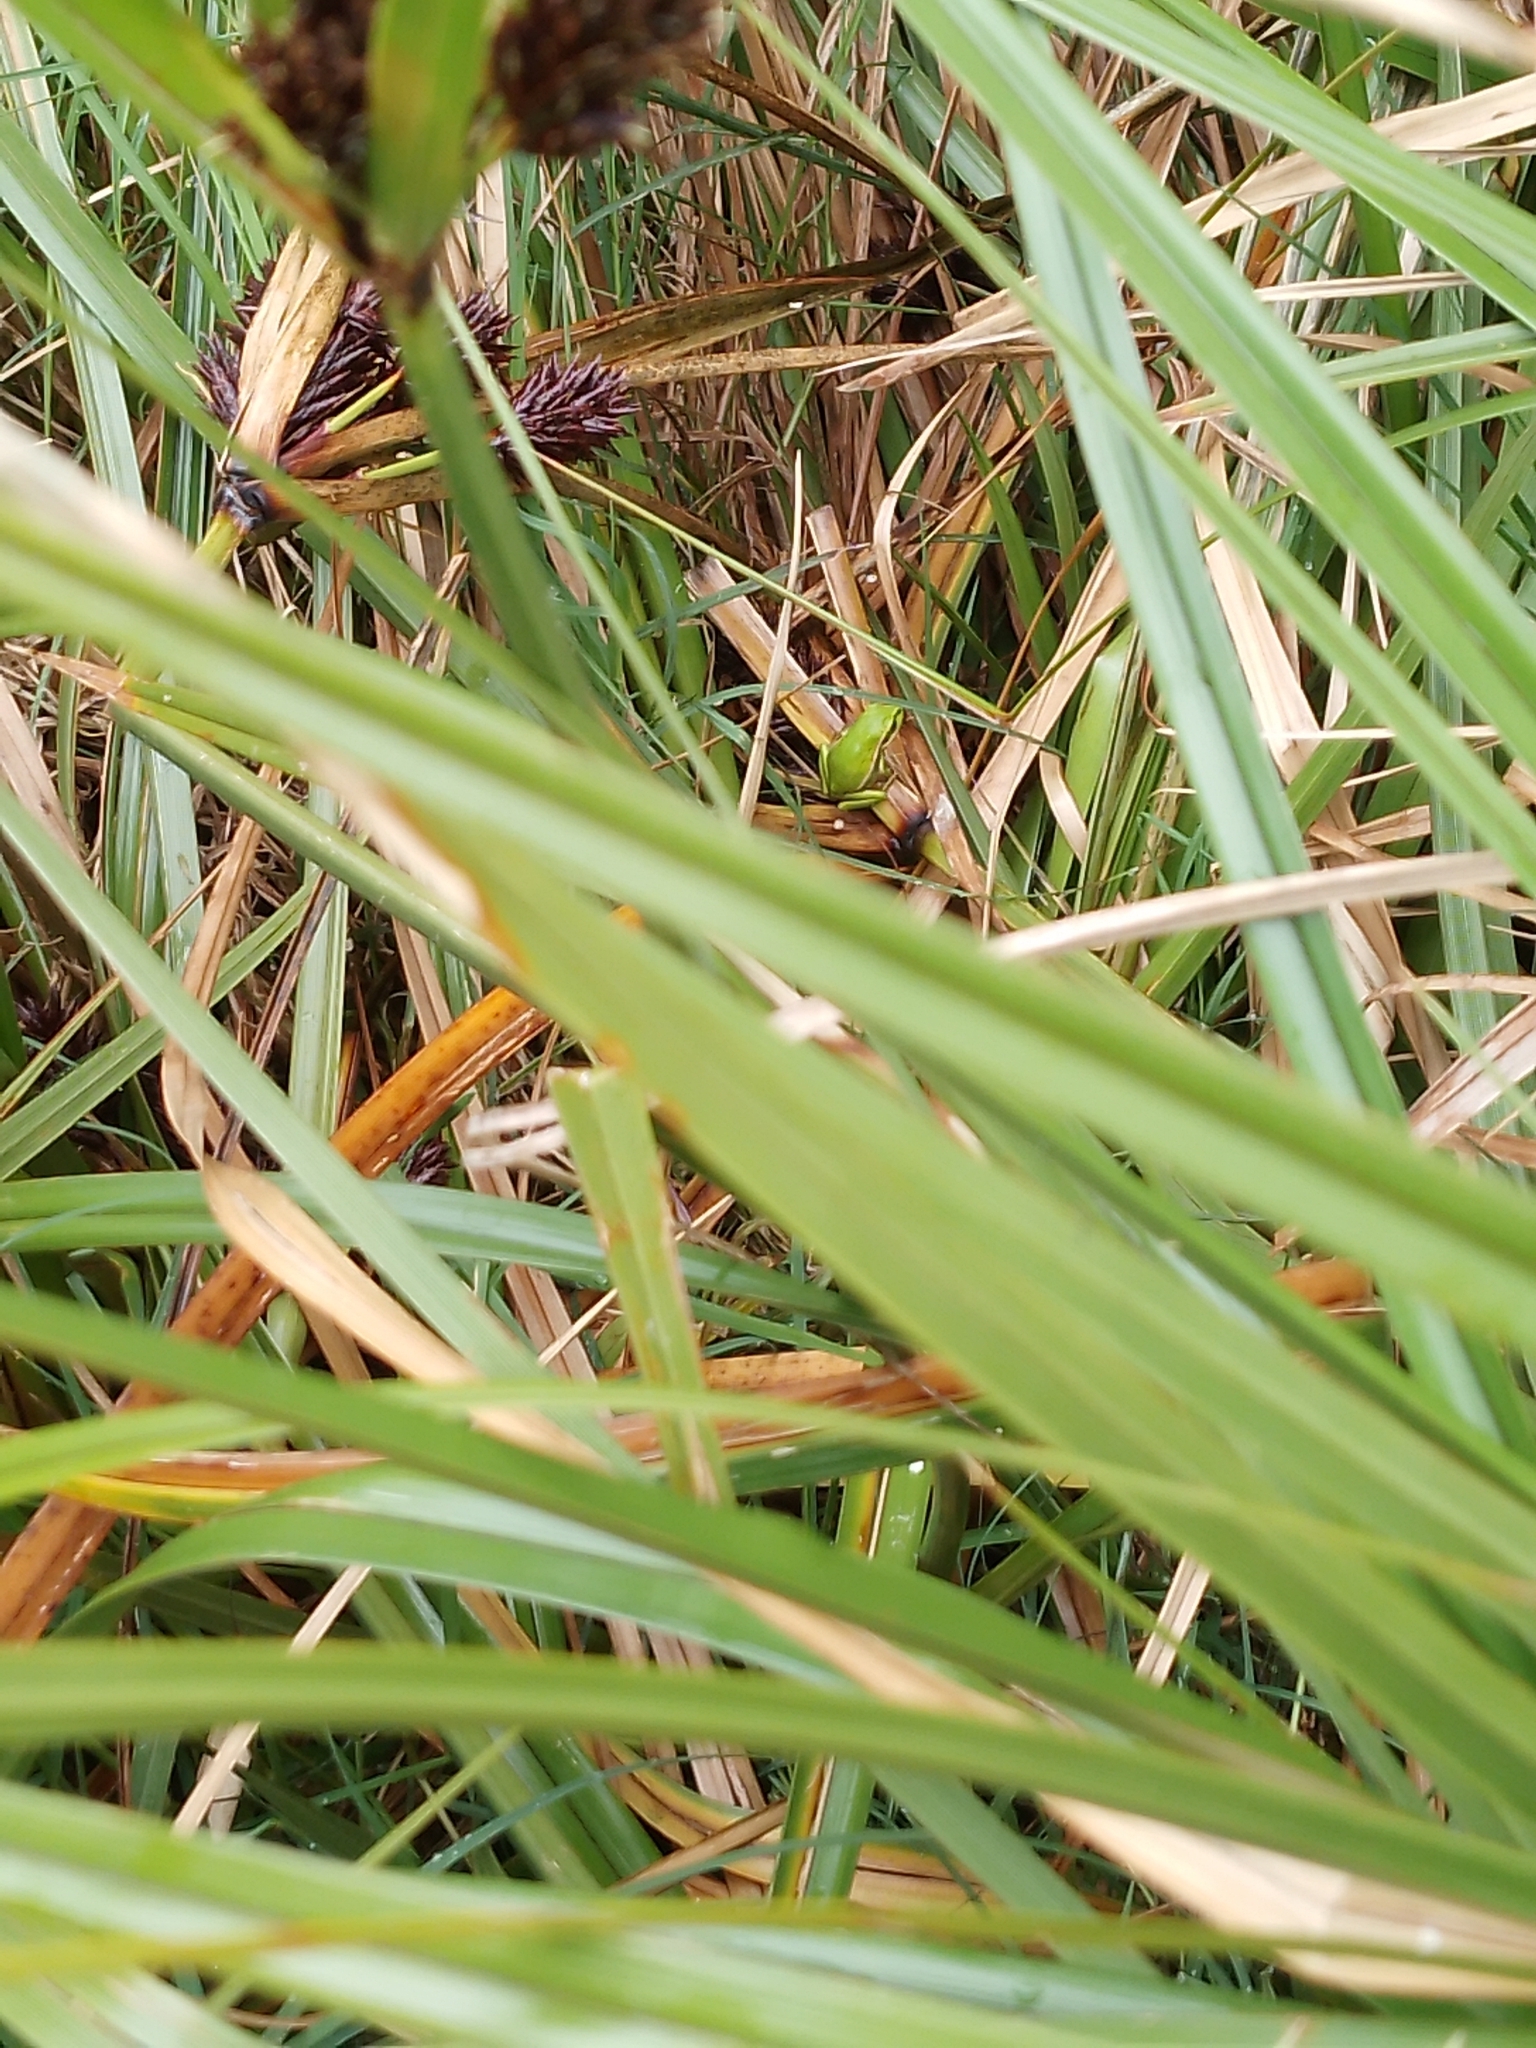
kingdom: Animalia
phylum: Chordata
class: Amphibia
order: Anura
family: Pelodryadidae
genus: Ranoidea
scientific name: Ranoidea aurea
